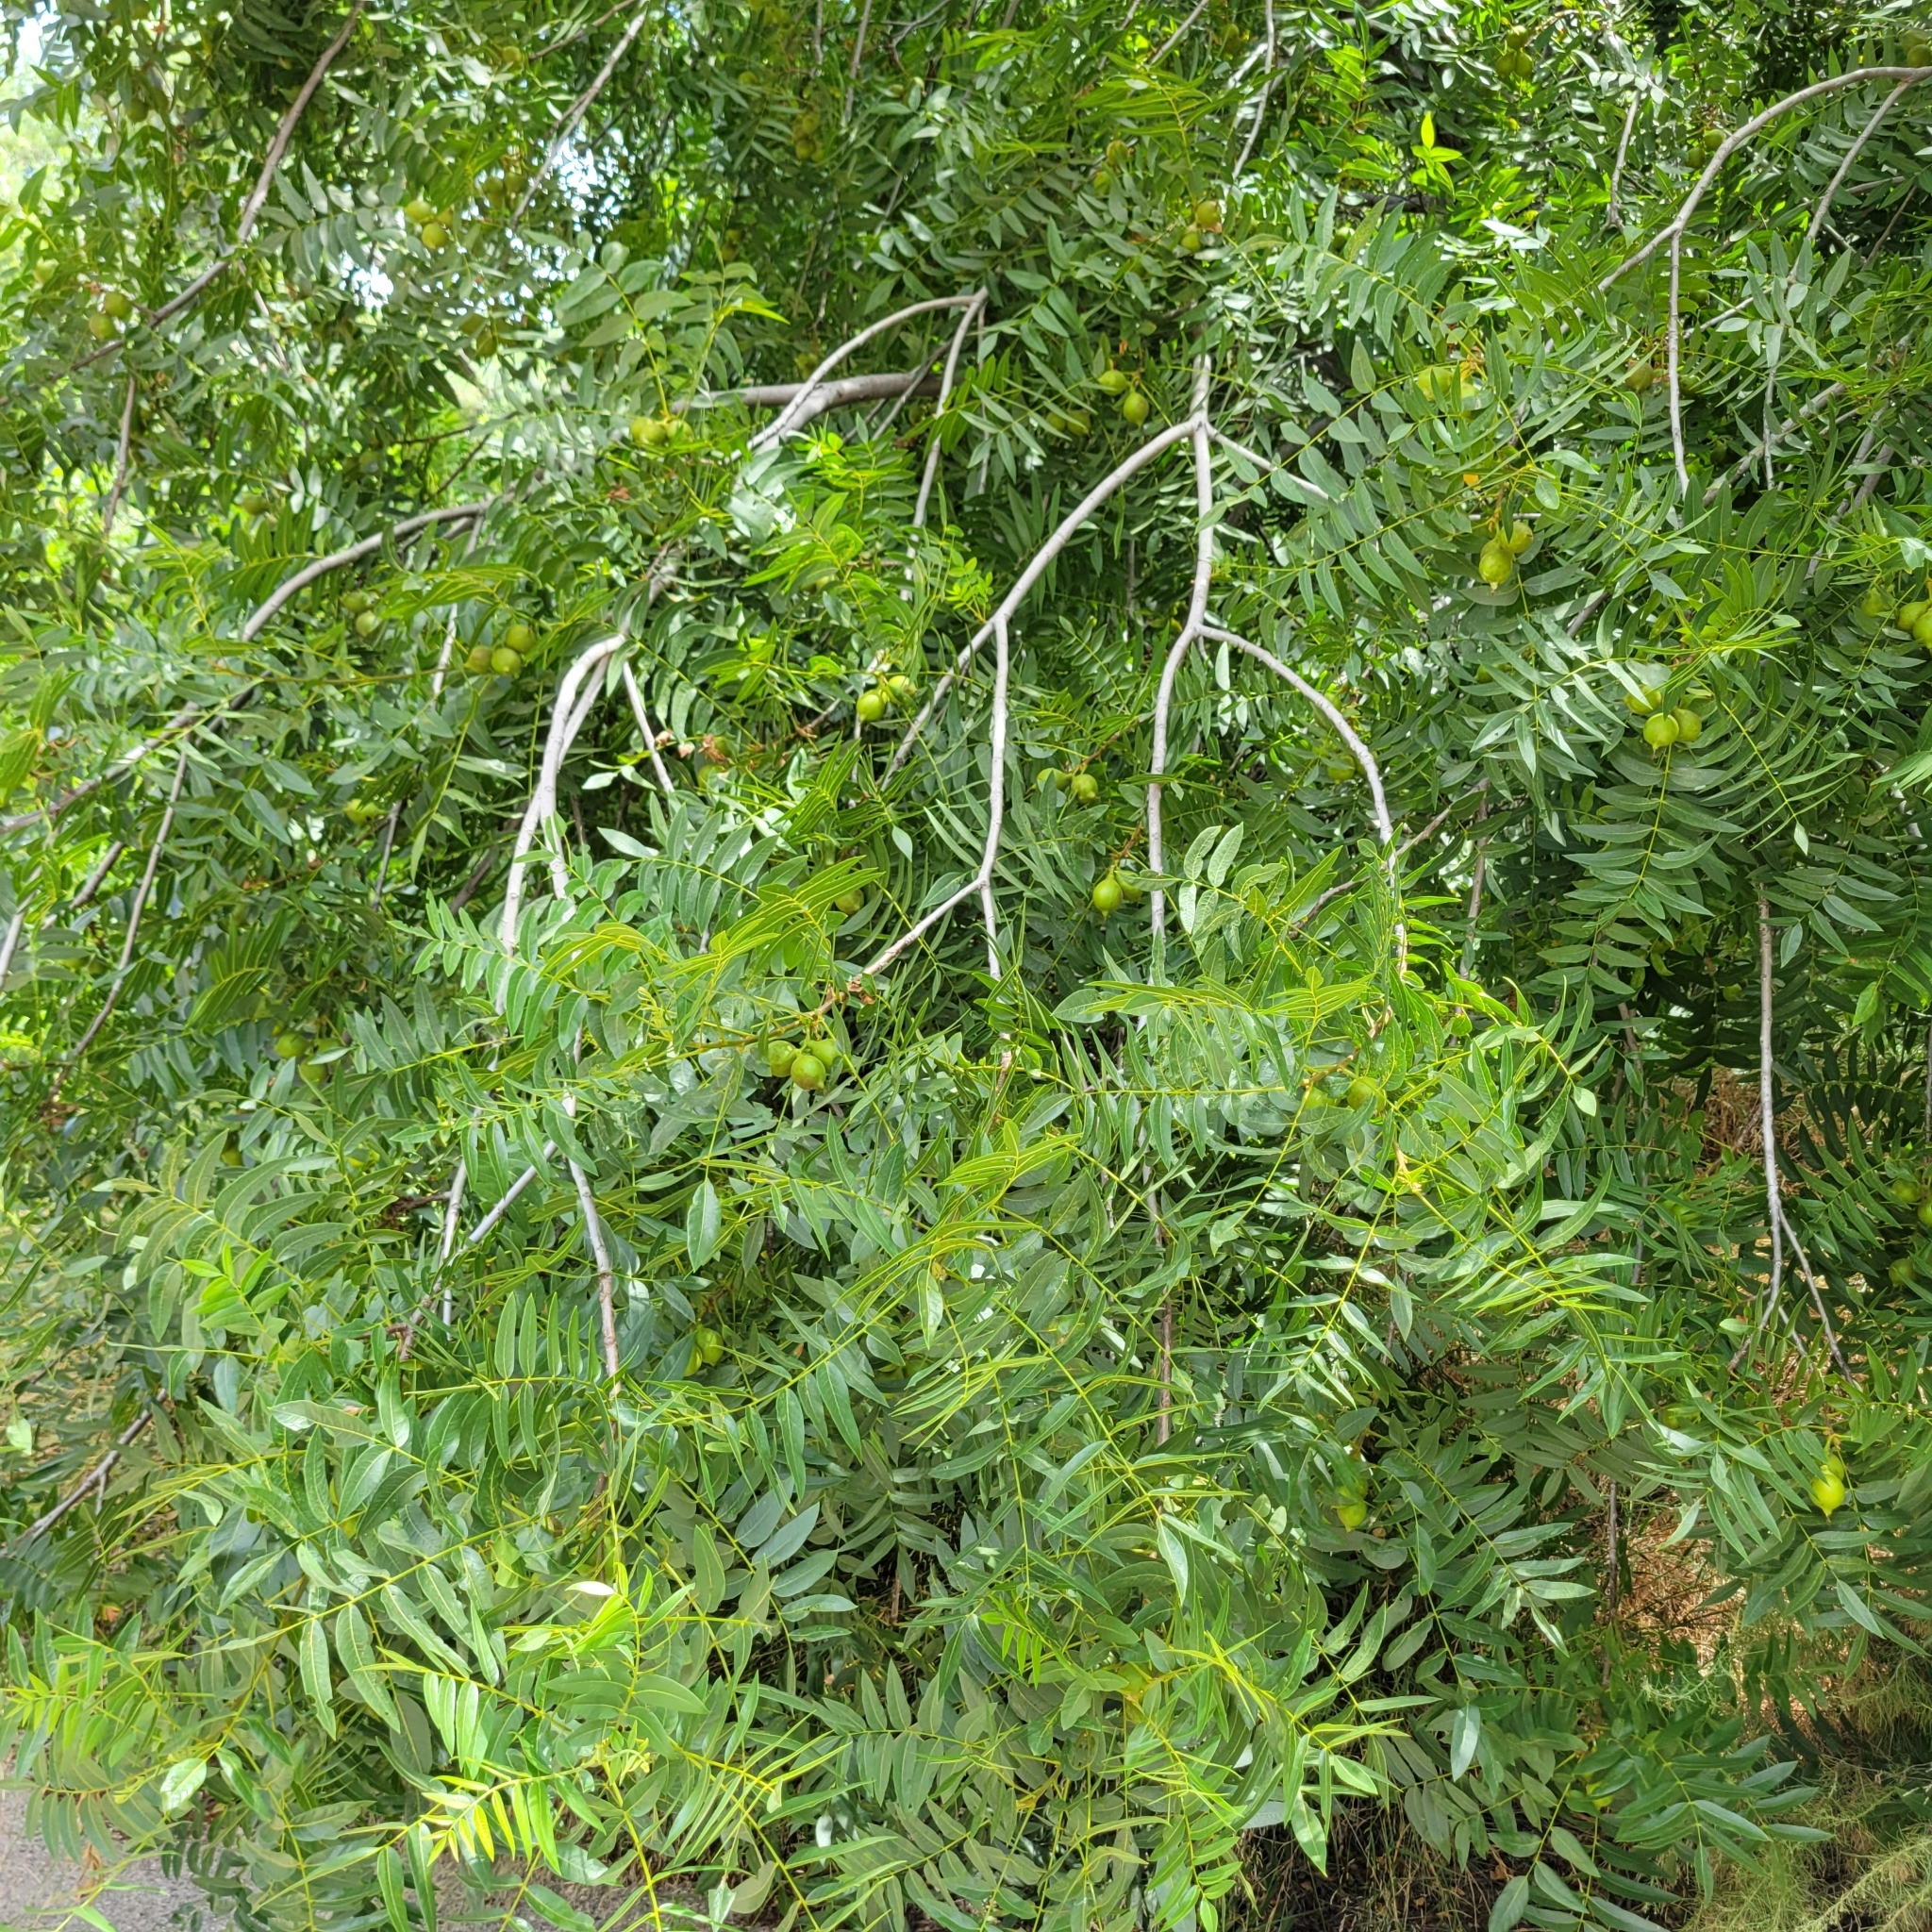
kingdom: Plantae
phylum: Tracheophyta
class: Magnoliopsida
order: Fagales
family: Juglandaceae
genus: Juglans
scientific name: Juglans californica
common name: Southern california black walnut
